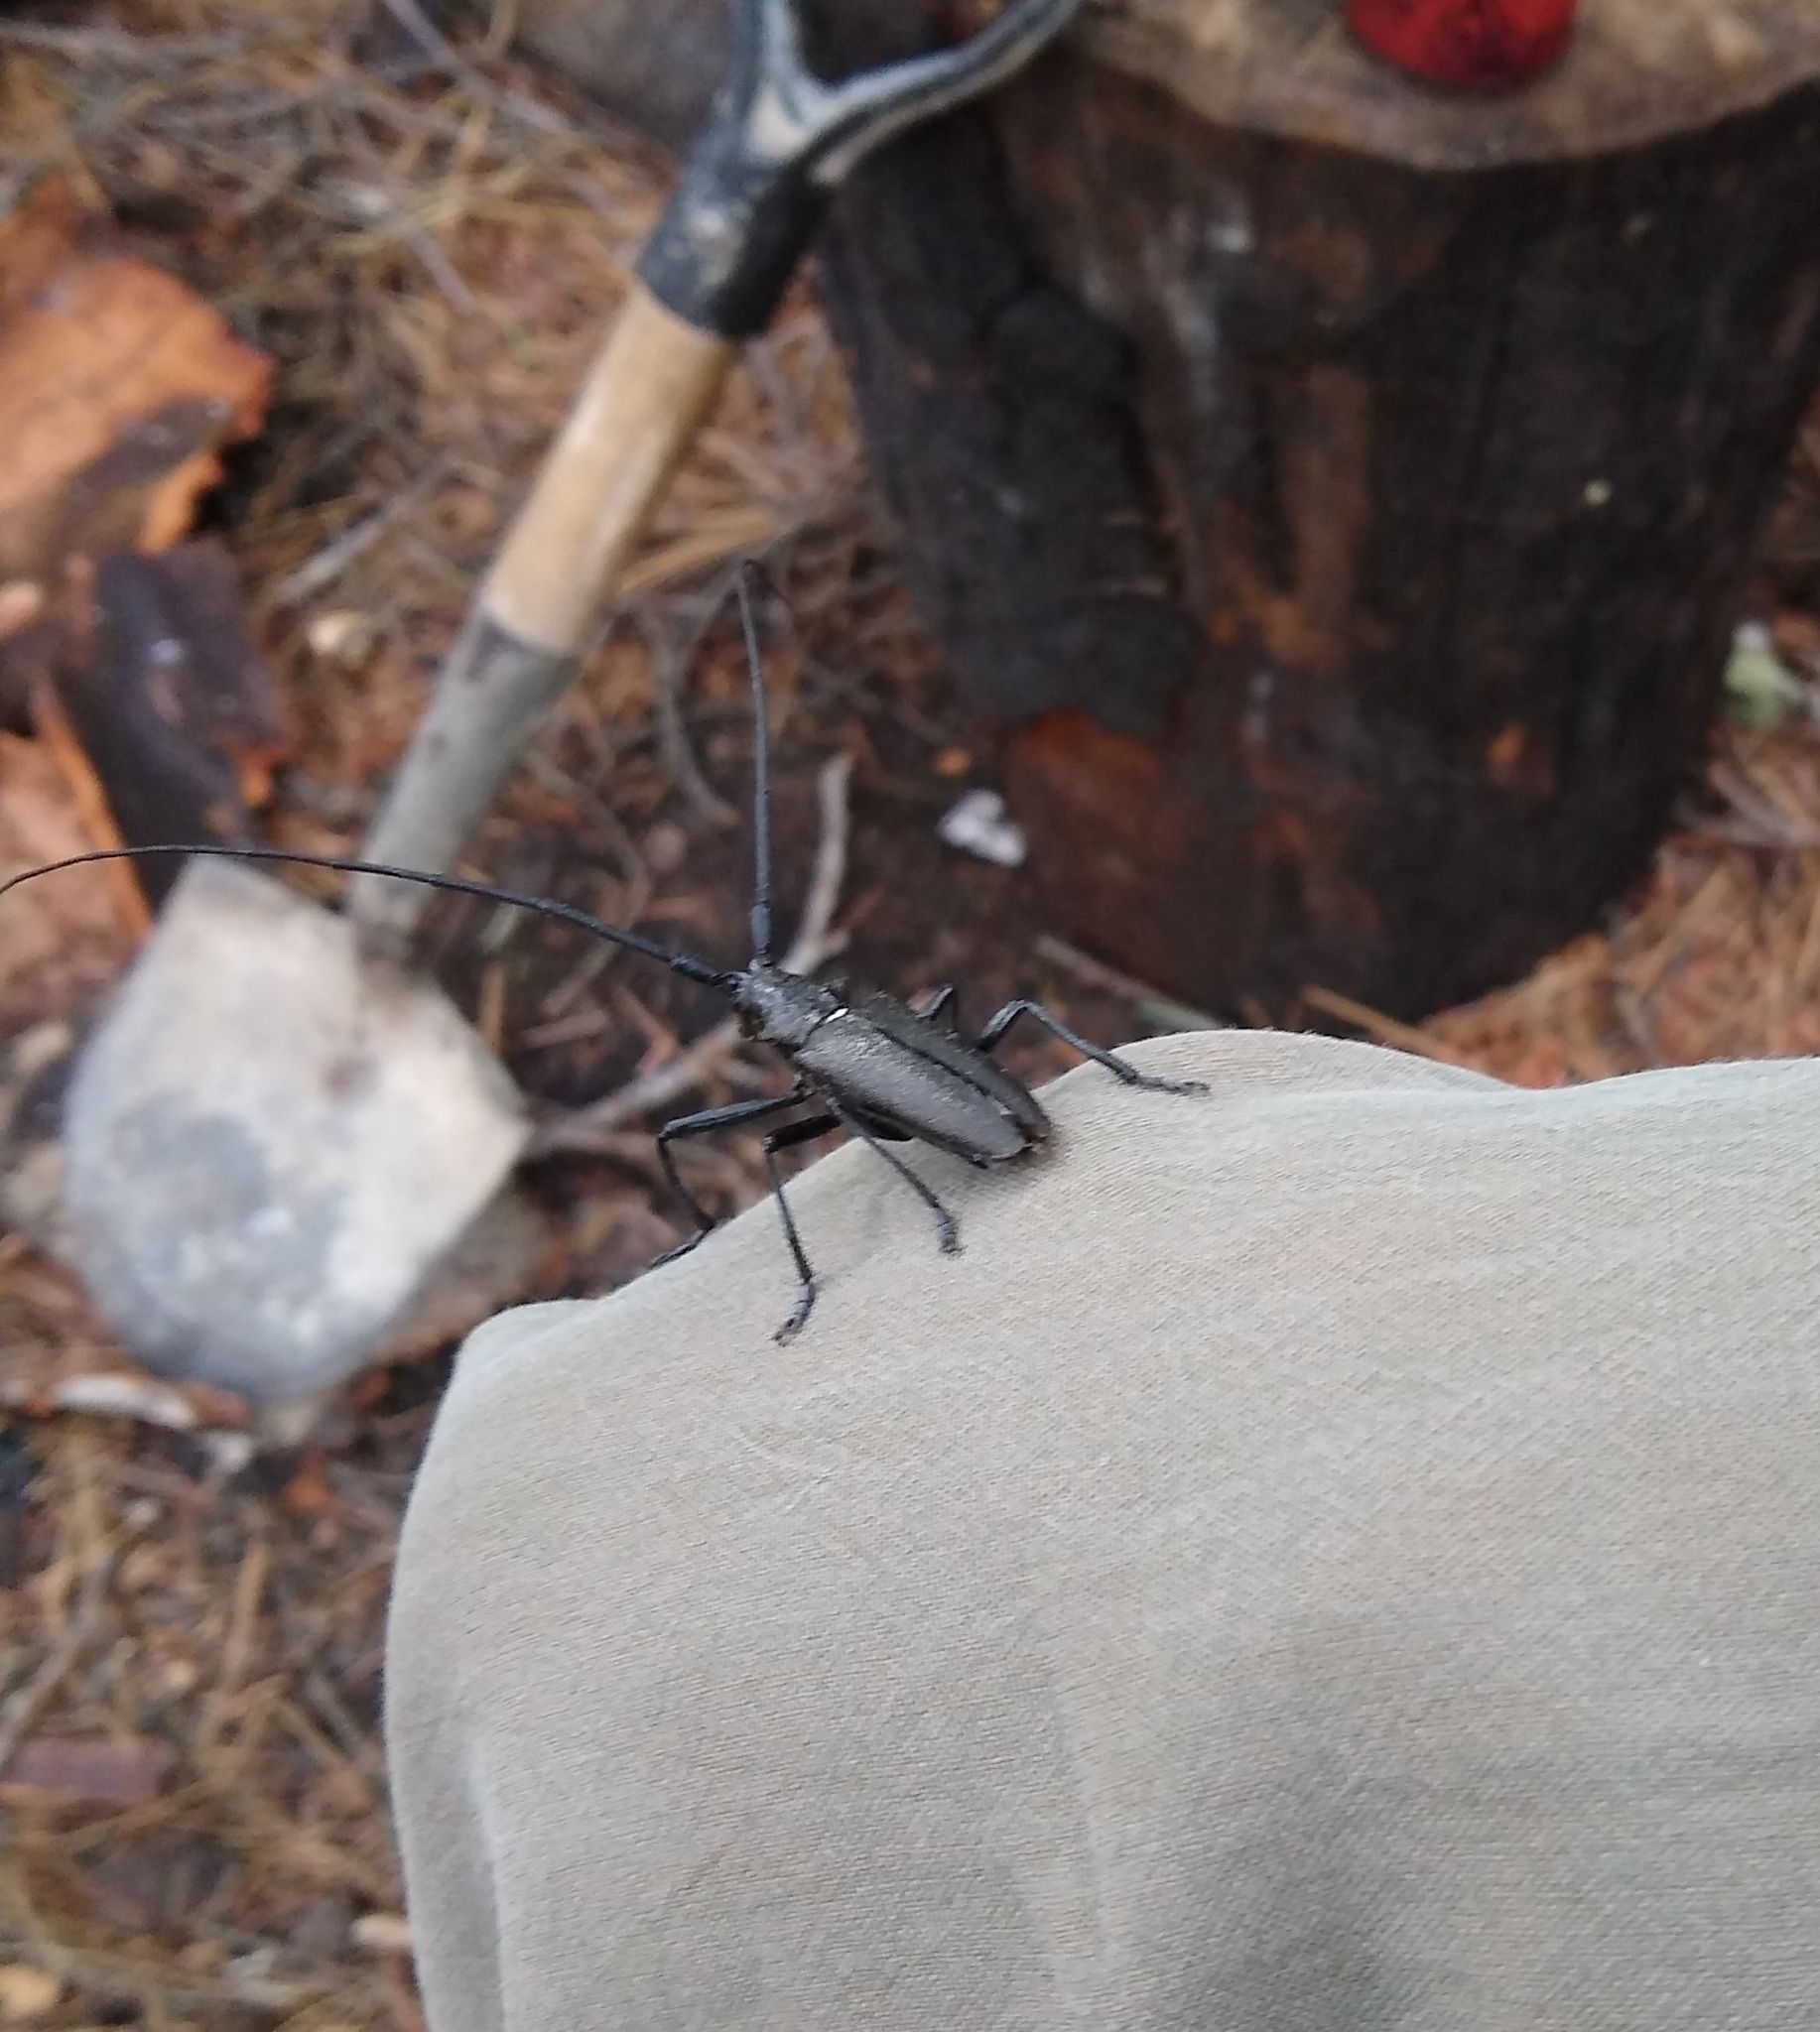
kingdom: Animalia
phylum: Arthropoda
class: Insecta
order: Coleoptera
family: Cerambycidae
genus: Monochamus
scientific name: Monochamus scutellatus
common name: White-spotted sawyer beetle
